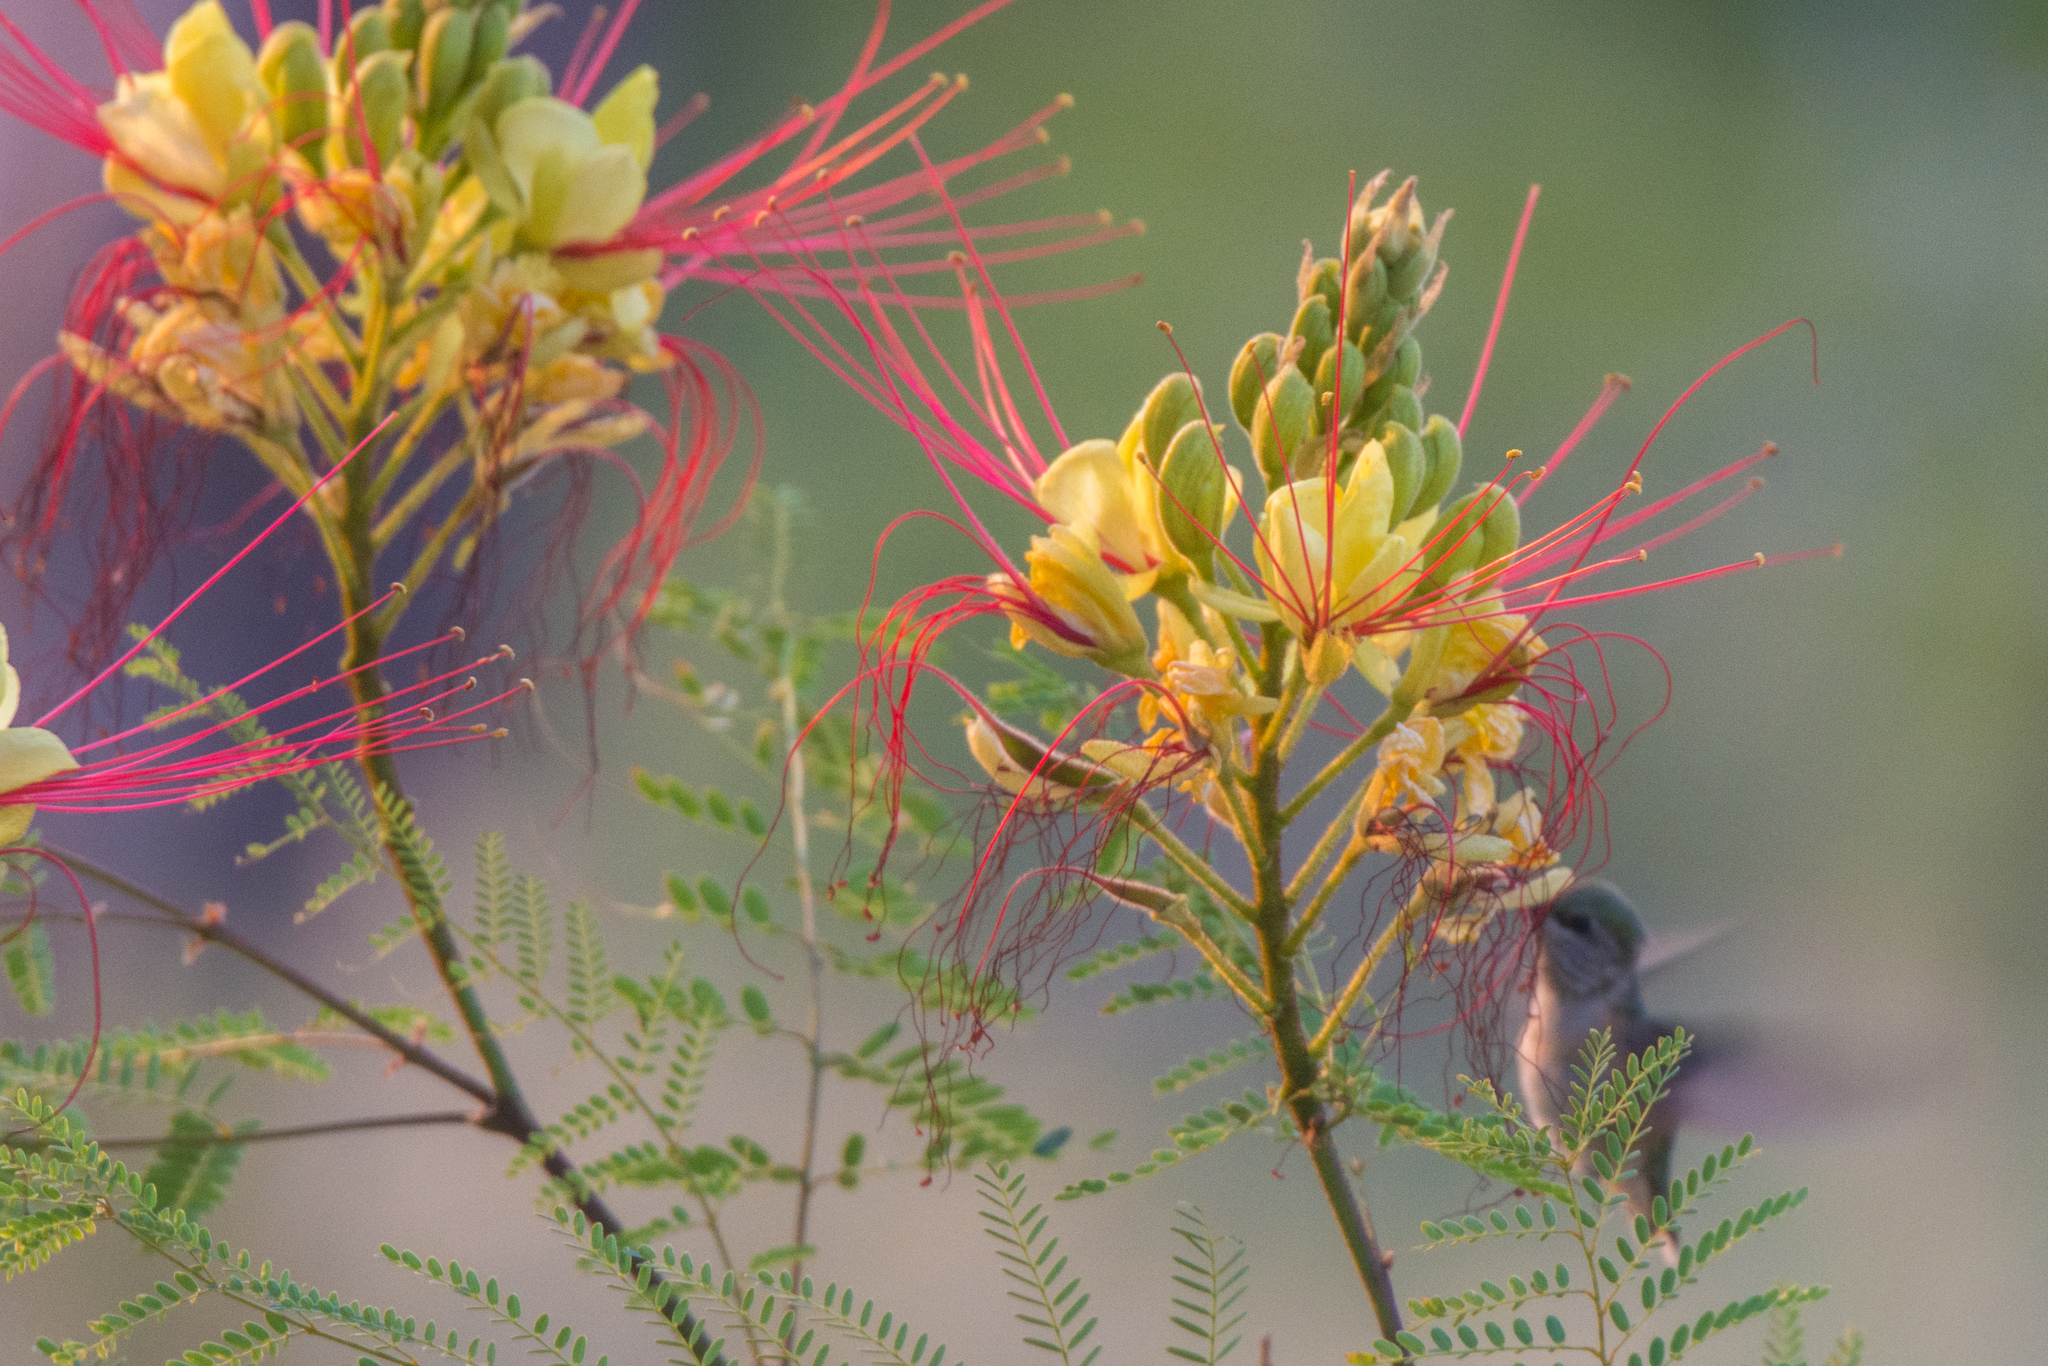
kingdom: Plantae
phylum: Tracheophyta
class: Magnoliopsida
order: Fabales
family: Fabaceae
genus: Erythrostemon
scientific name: Erythrostemon gilliesii
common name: Bird-of-paradise shrub
